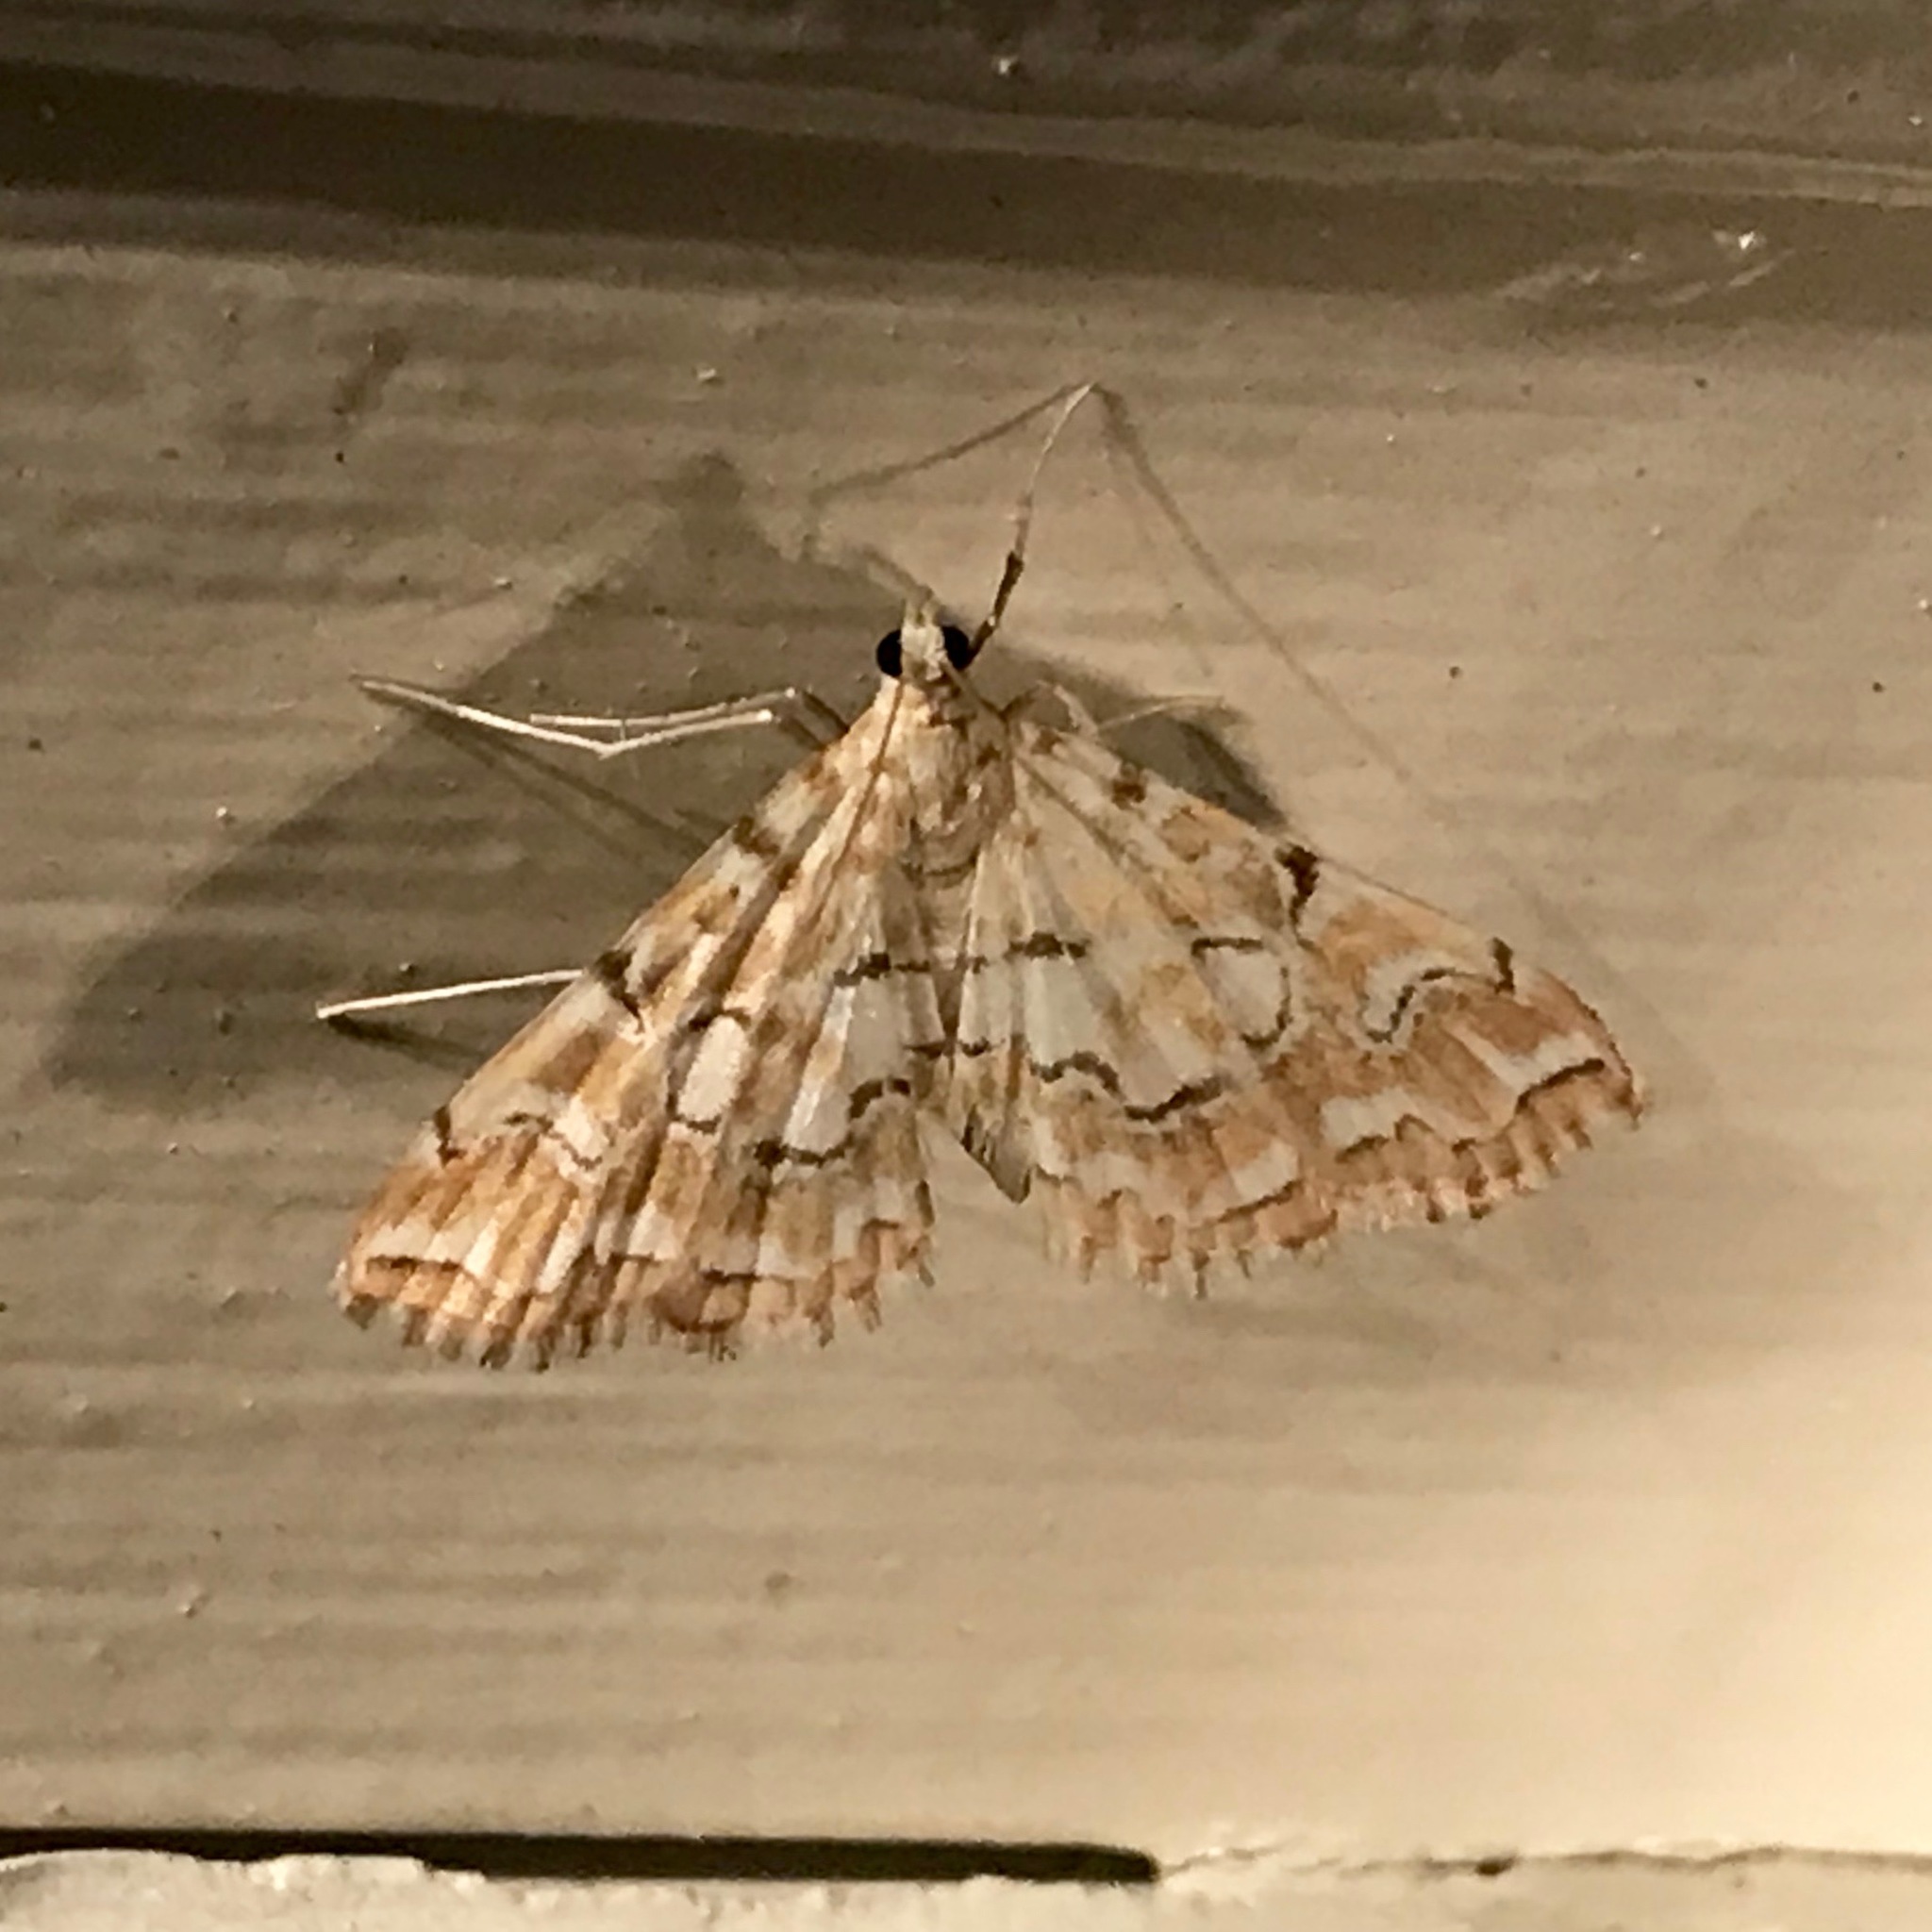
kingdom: Animalia
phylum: Arthropoda
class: Insecta
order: Lepidoptera
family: Crambidae
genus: Elophila
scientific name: Elophila icciusalis
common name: Pondside pyralid moth
